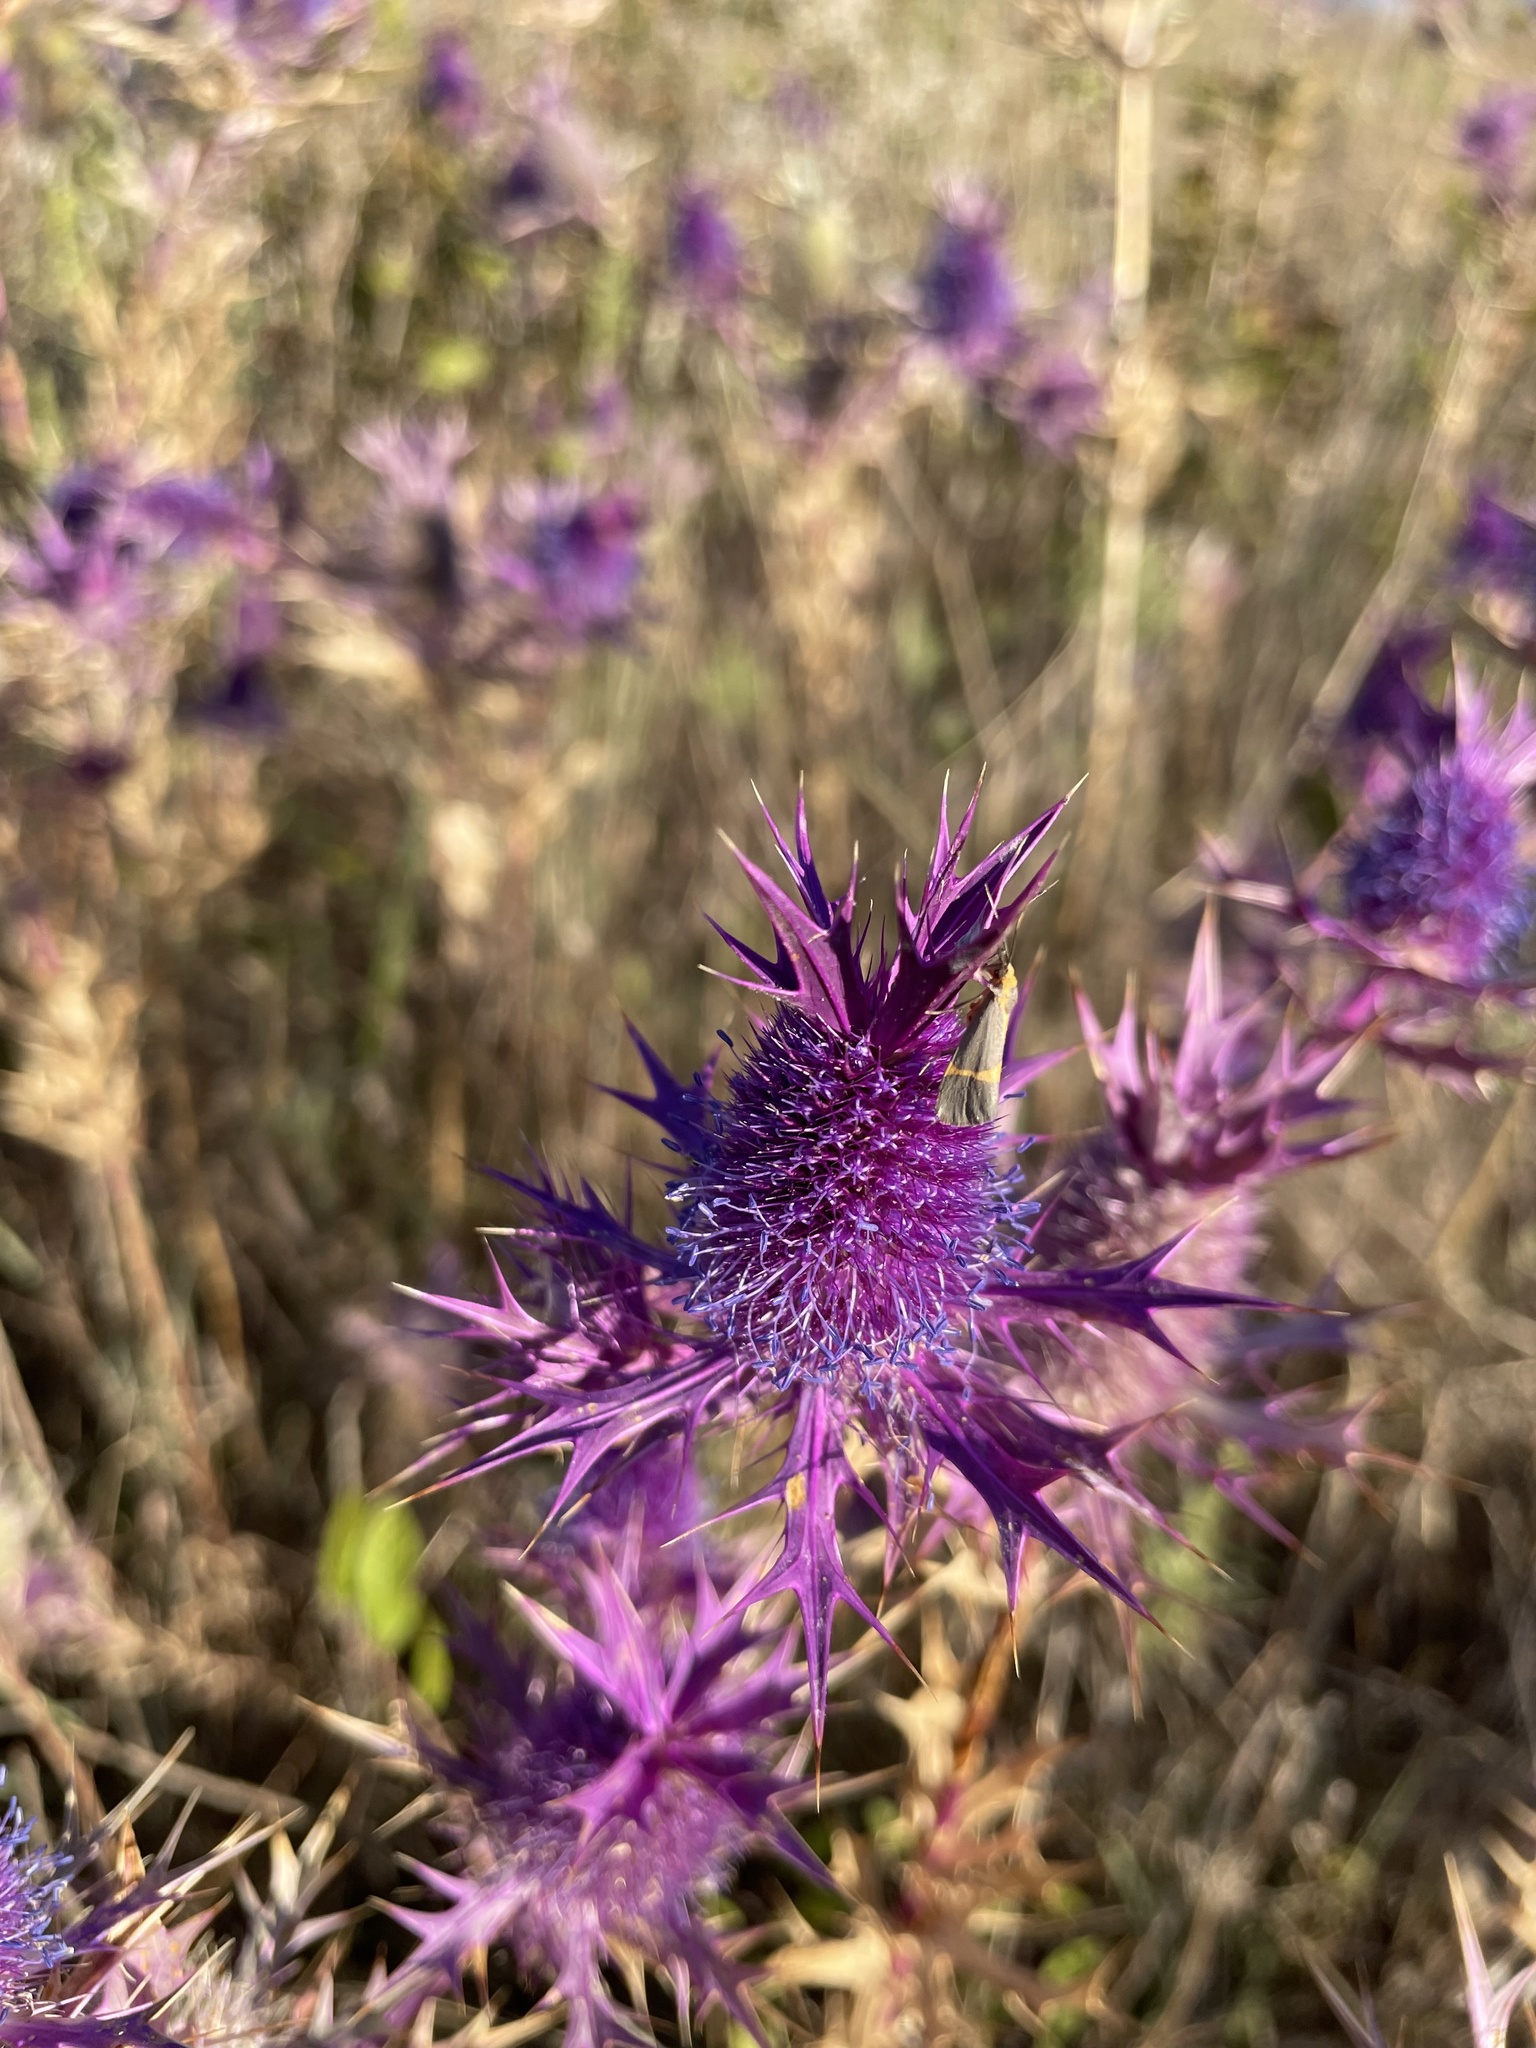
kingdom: Animalia
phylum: Arthropoda
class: Insecta
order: Lepidoptera
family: Erebidae
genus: Cisthene
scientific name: Cisthene tenuifascia
